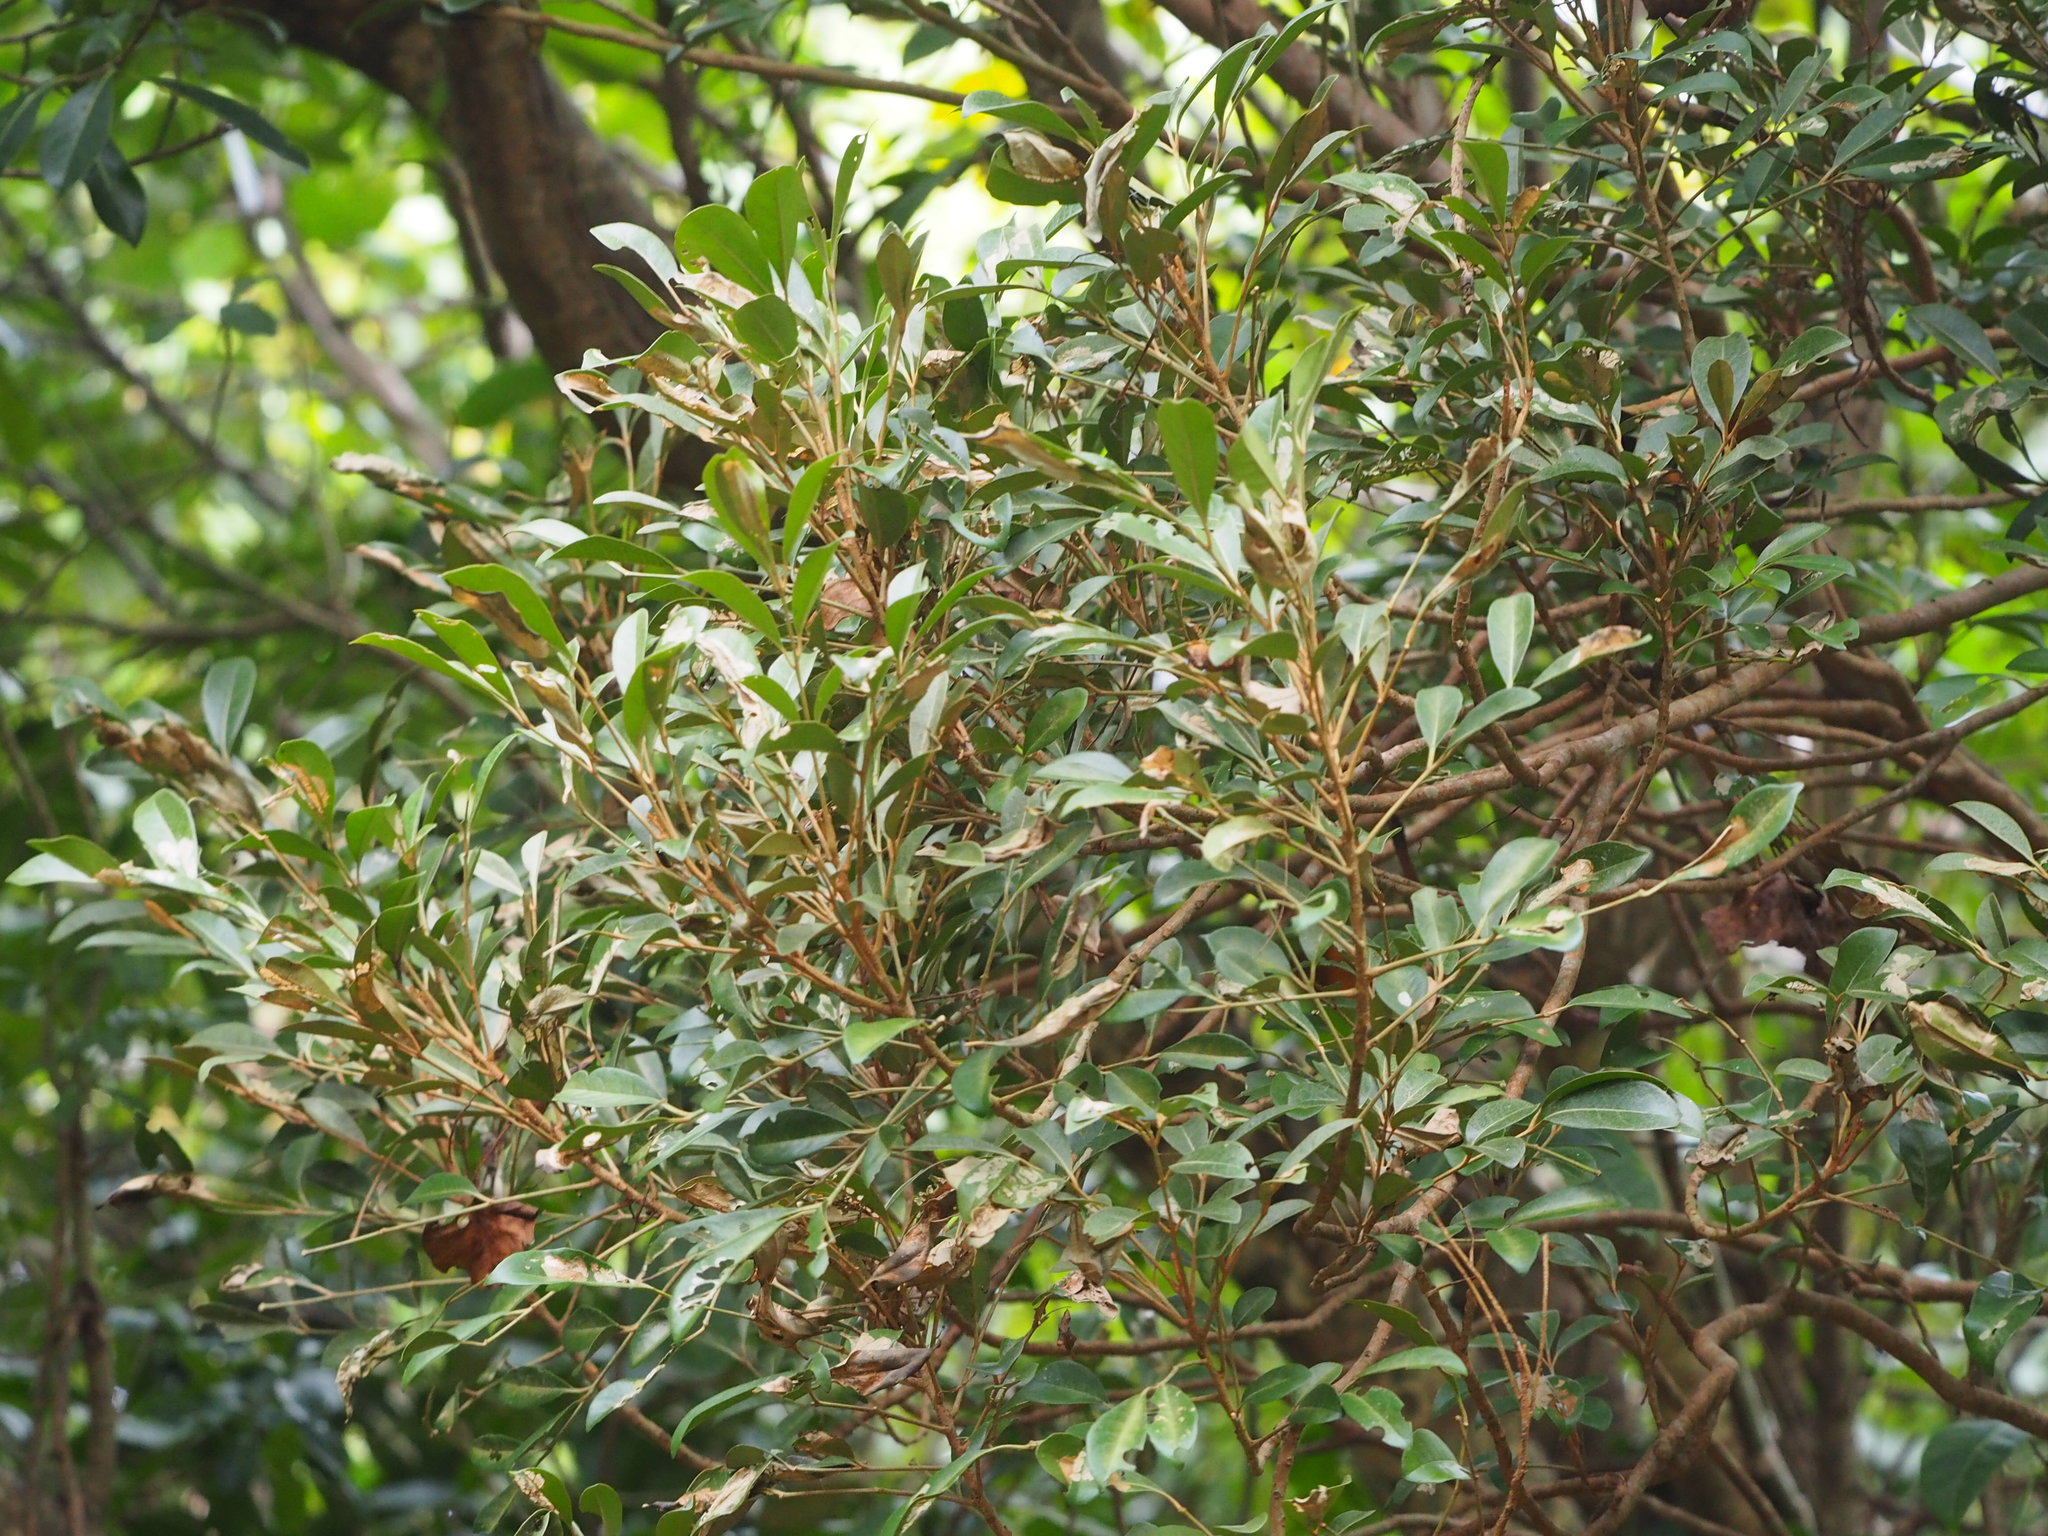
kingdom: Plantae
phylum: Tracheophyta
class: Magnoliopsida
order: Sapindales
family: Meliaceae
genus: Aglaia
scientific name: Aglaia elaeagnoidea
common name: Droopyleaf
